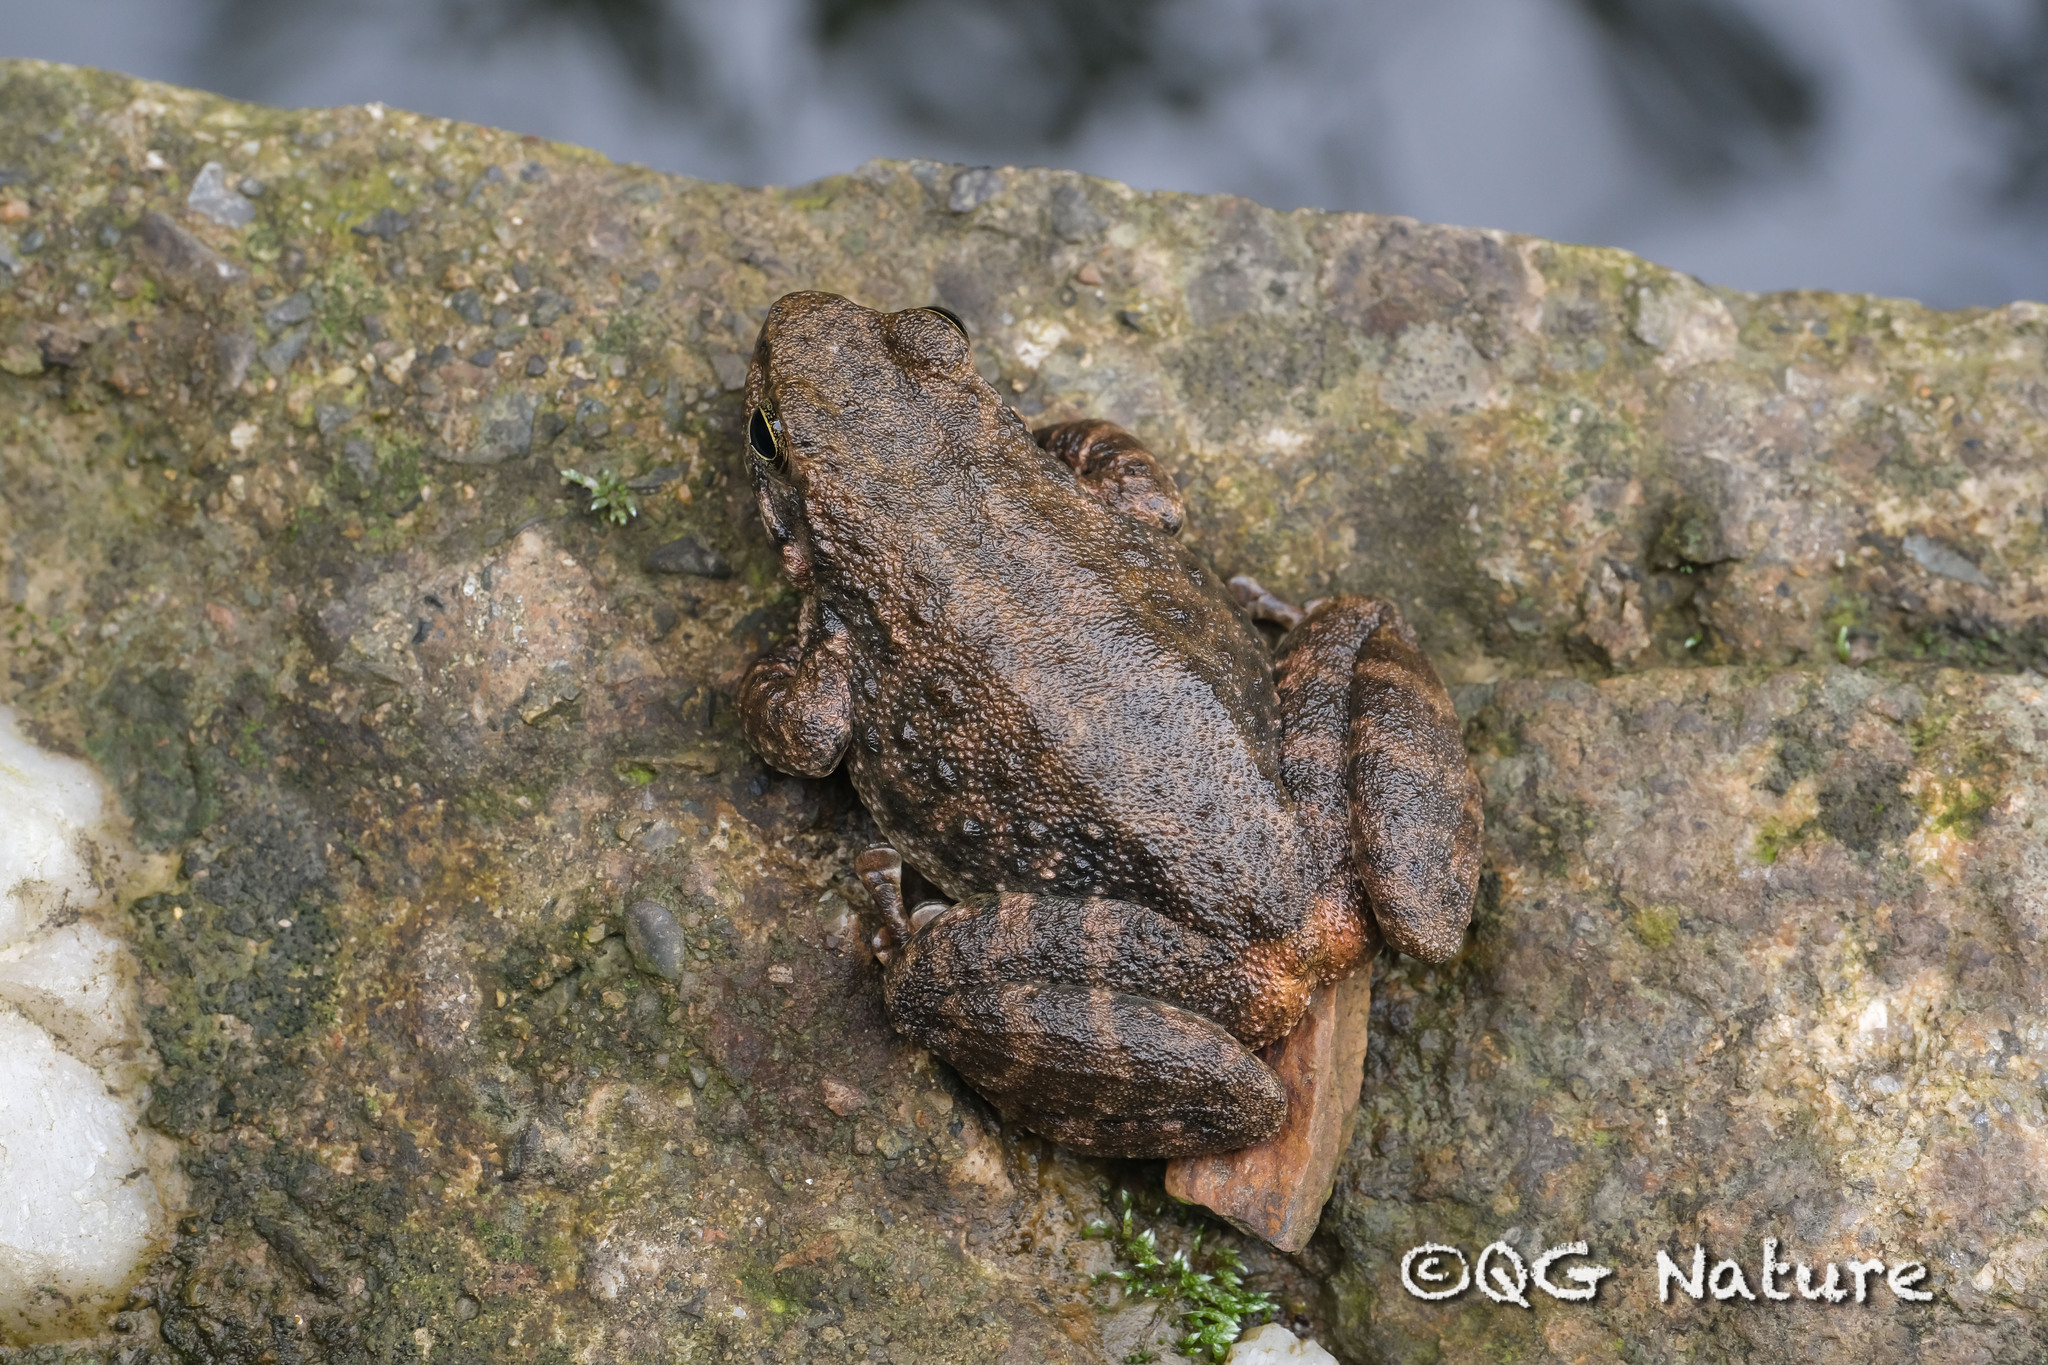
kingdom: Animalia
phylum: Chordata
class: Amphibia
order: Anura
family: Ranidae
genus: Amolops
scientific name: Amolops wuyiensis
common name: Sanchiang sucker frog
